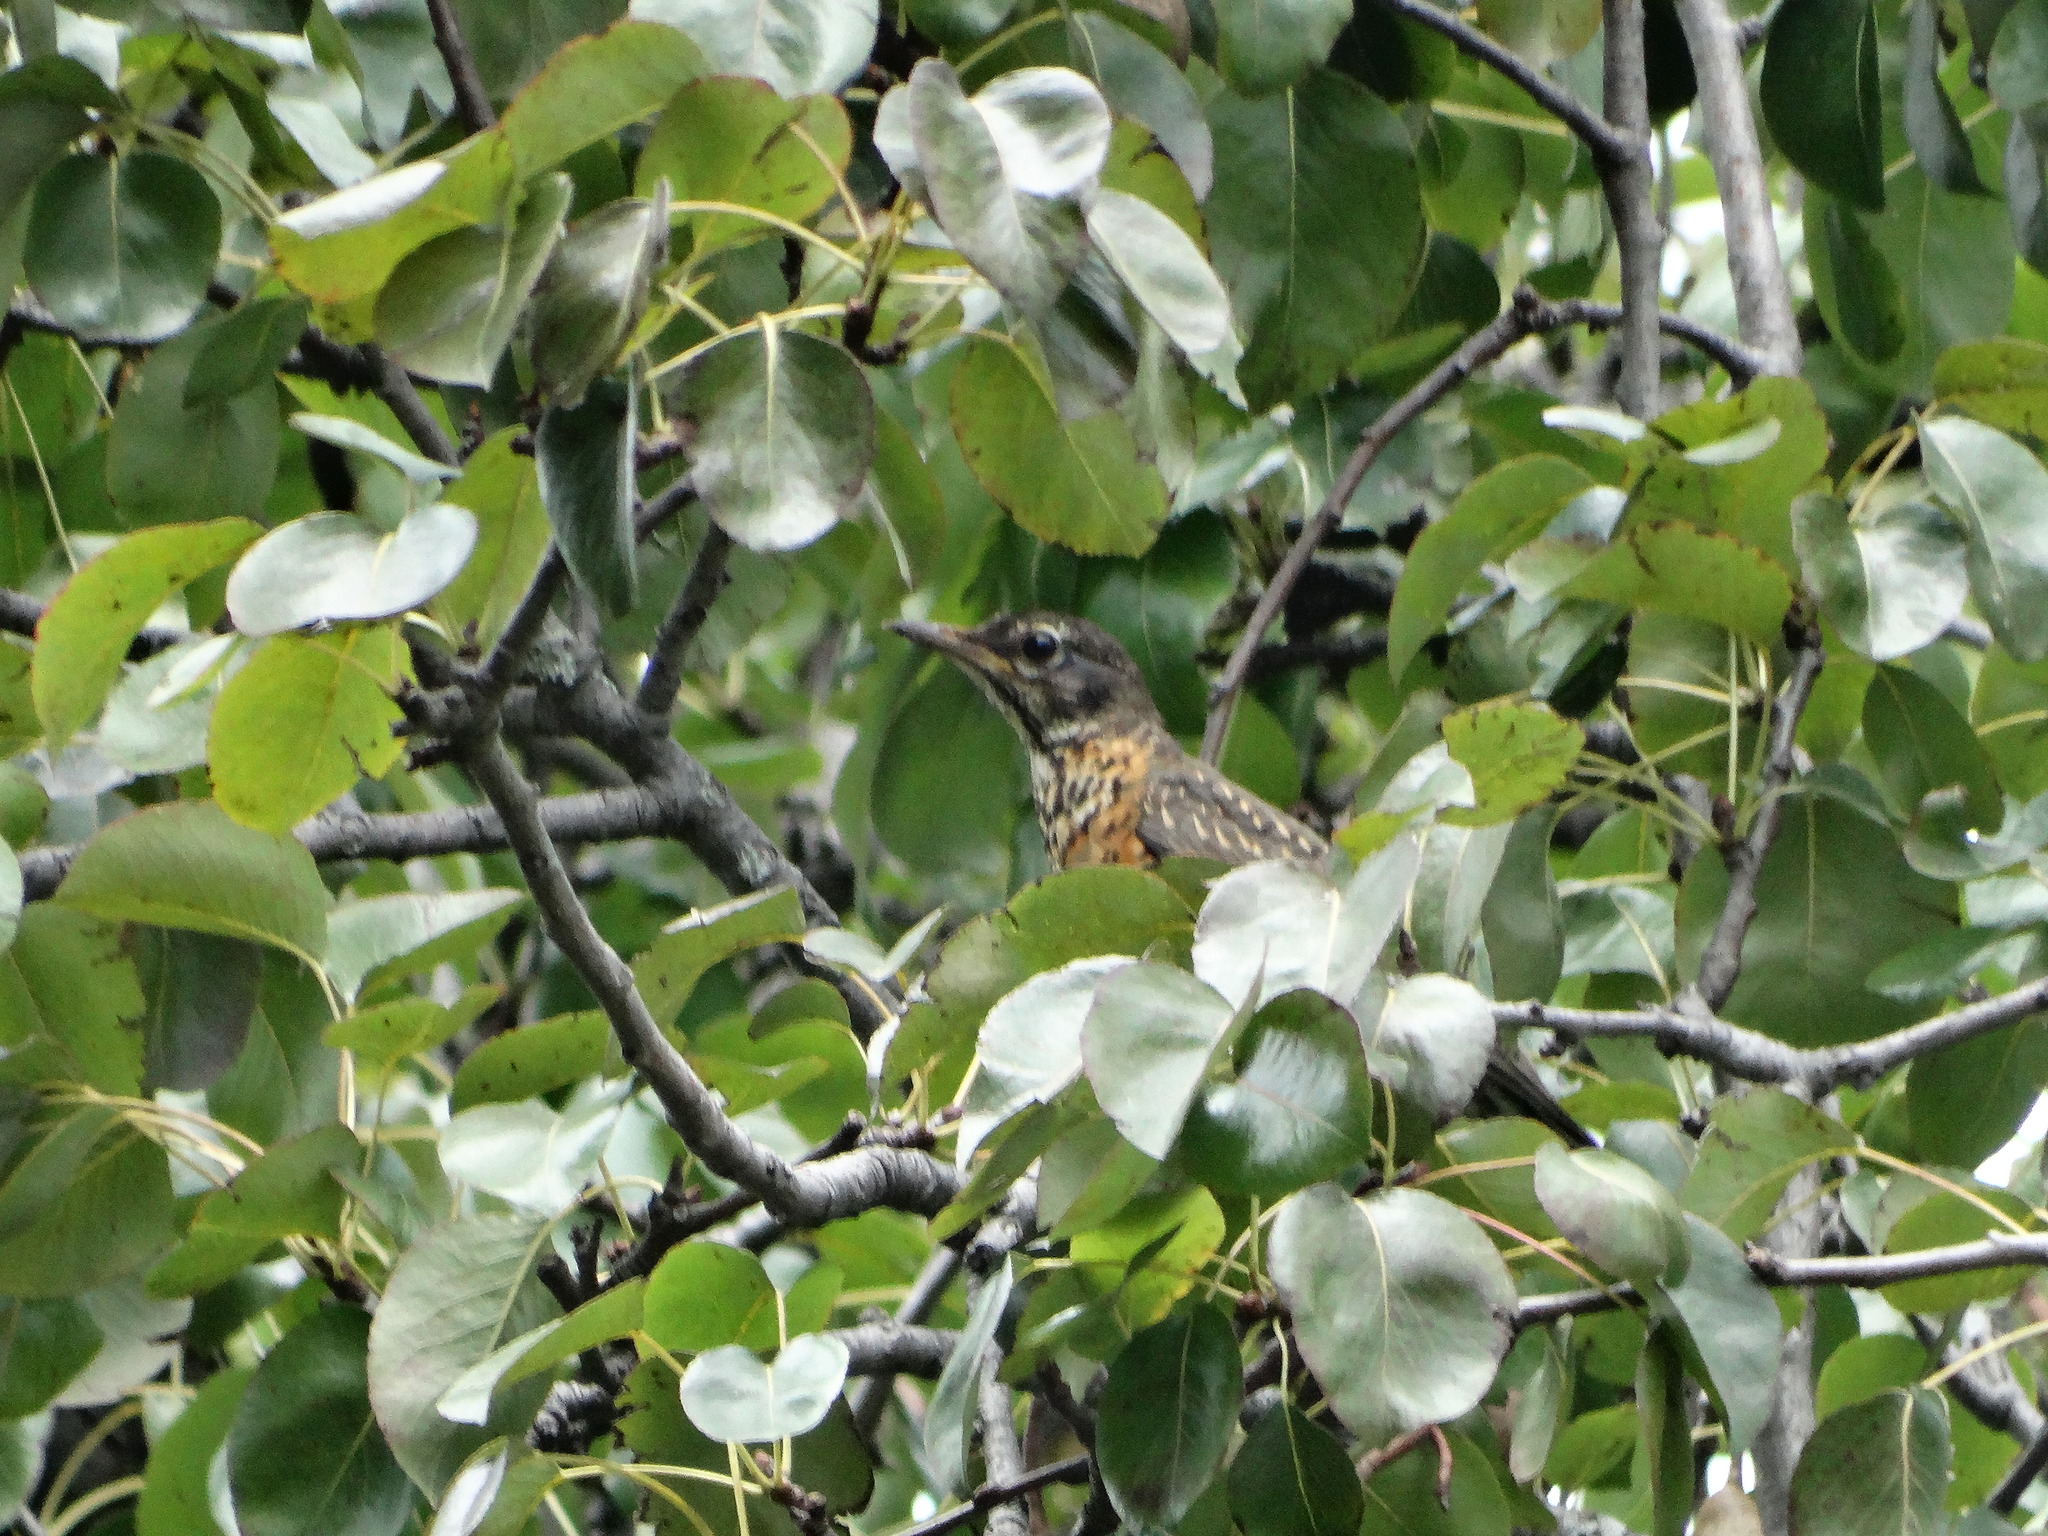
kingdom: Animalia
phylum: Chordata
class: Aves
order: Passeriformes
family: Turdidae
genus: Turdus
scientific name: Turdus migratorius
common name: American robin
